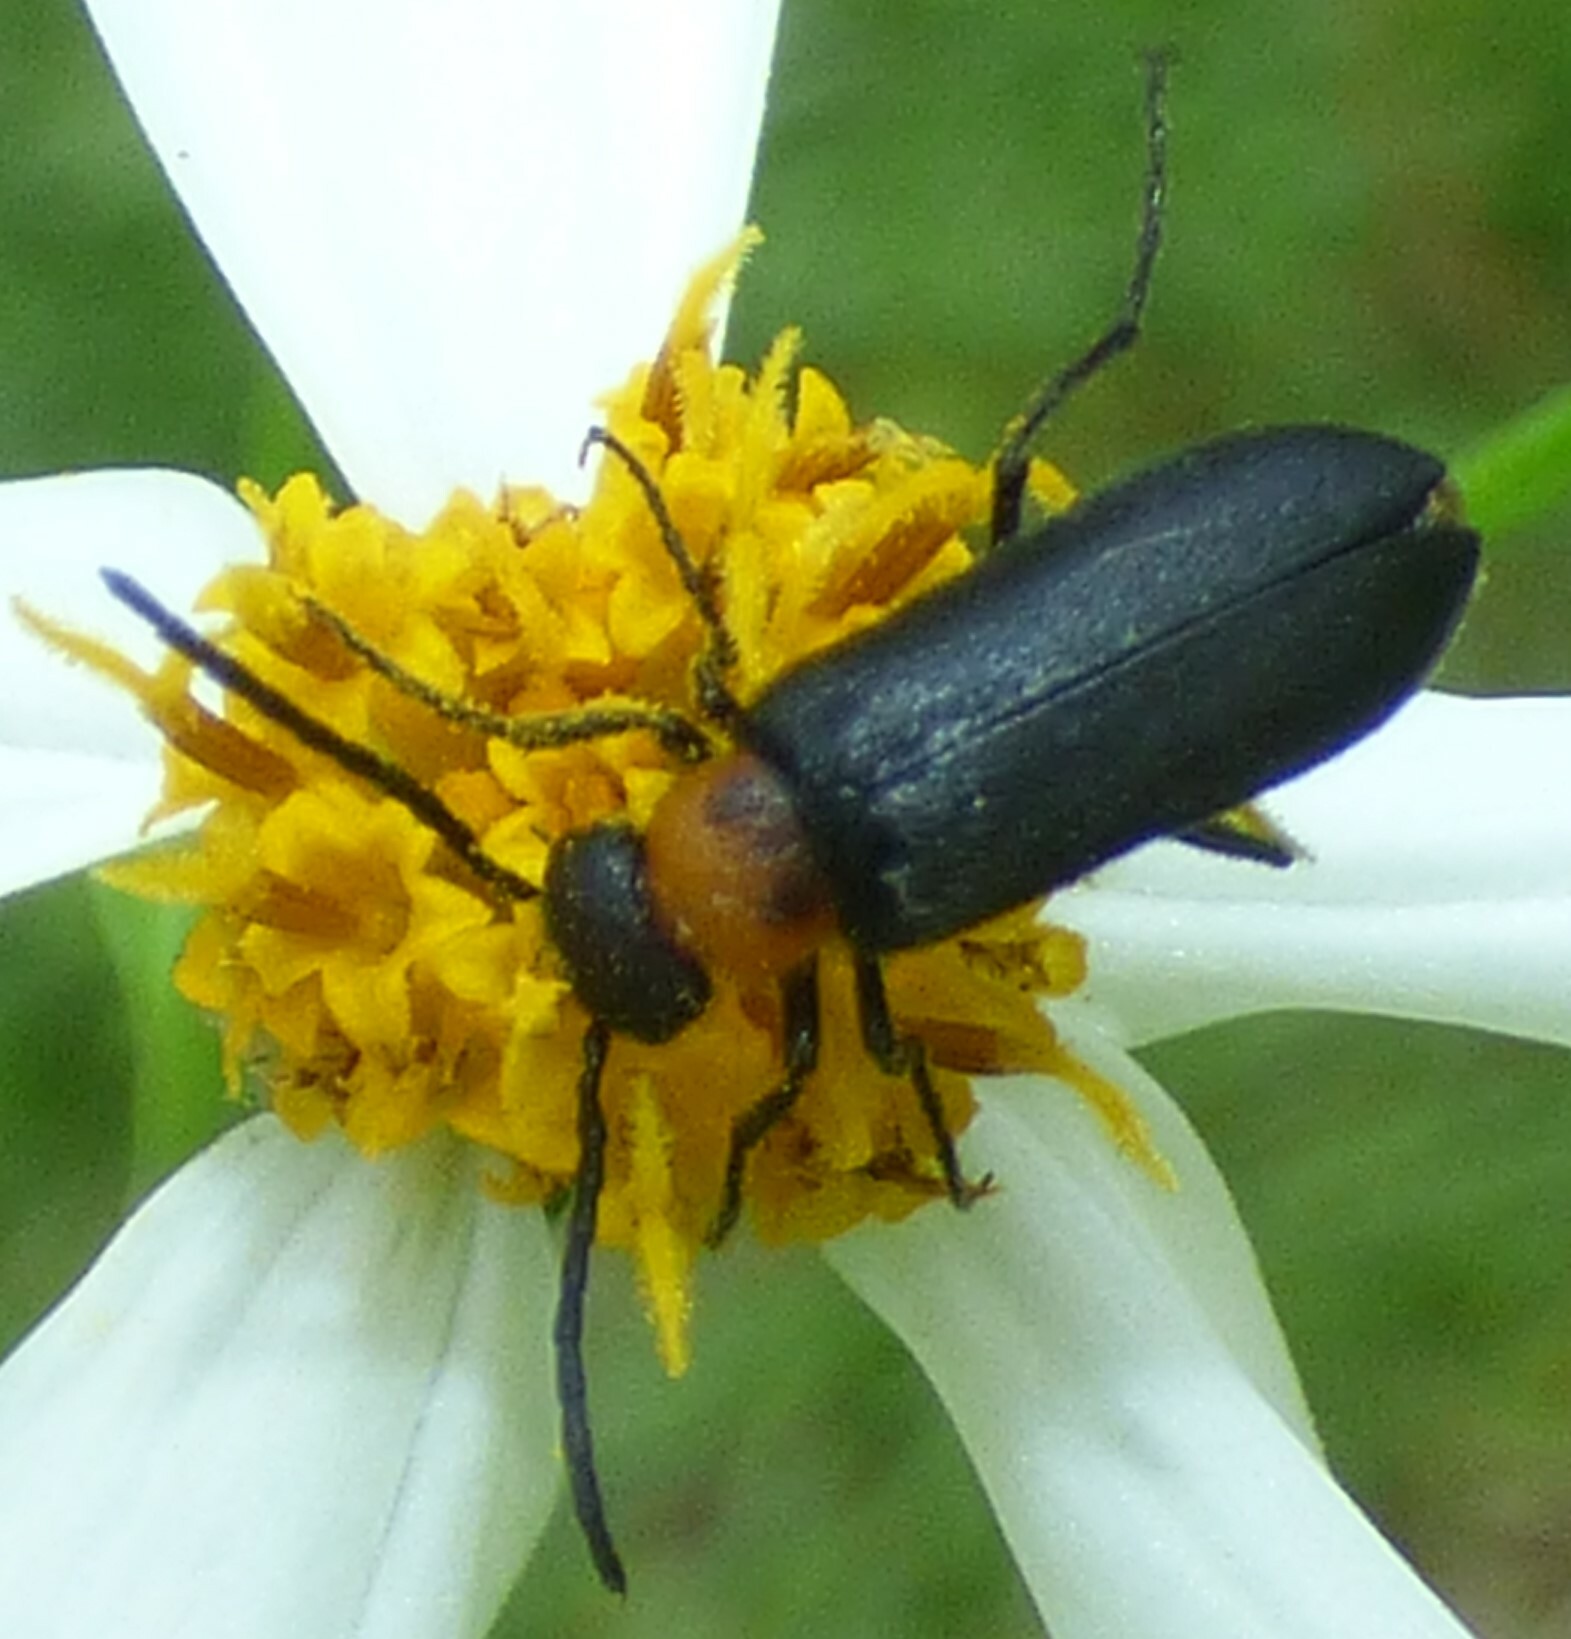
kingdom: Animalia
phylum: Arthropoda
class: Insecta
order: Coleoptera
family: Meloidae
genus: Nemognatha
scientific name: Nemognatha nemorensis
